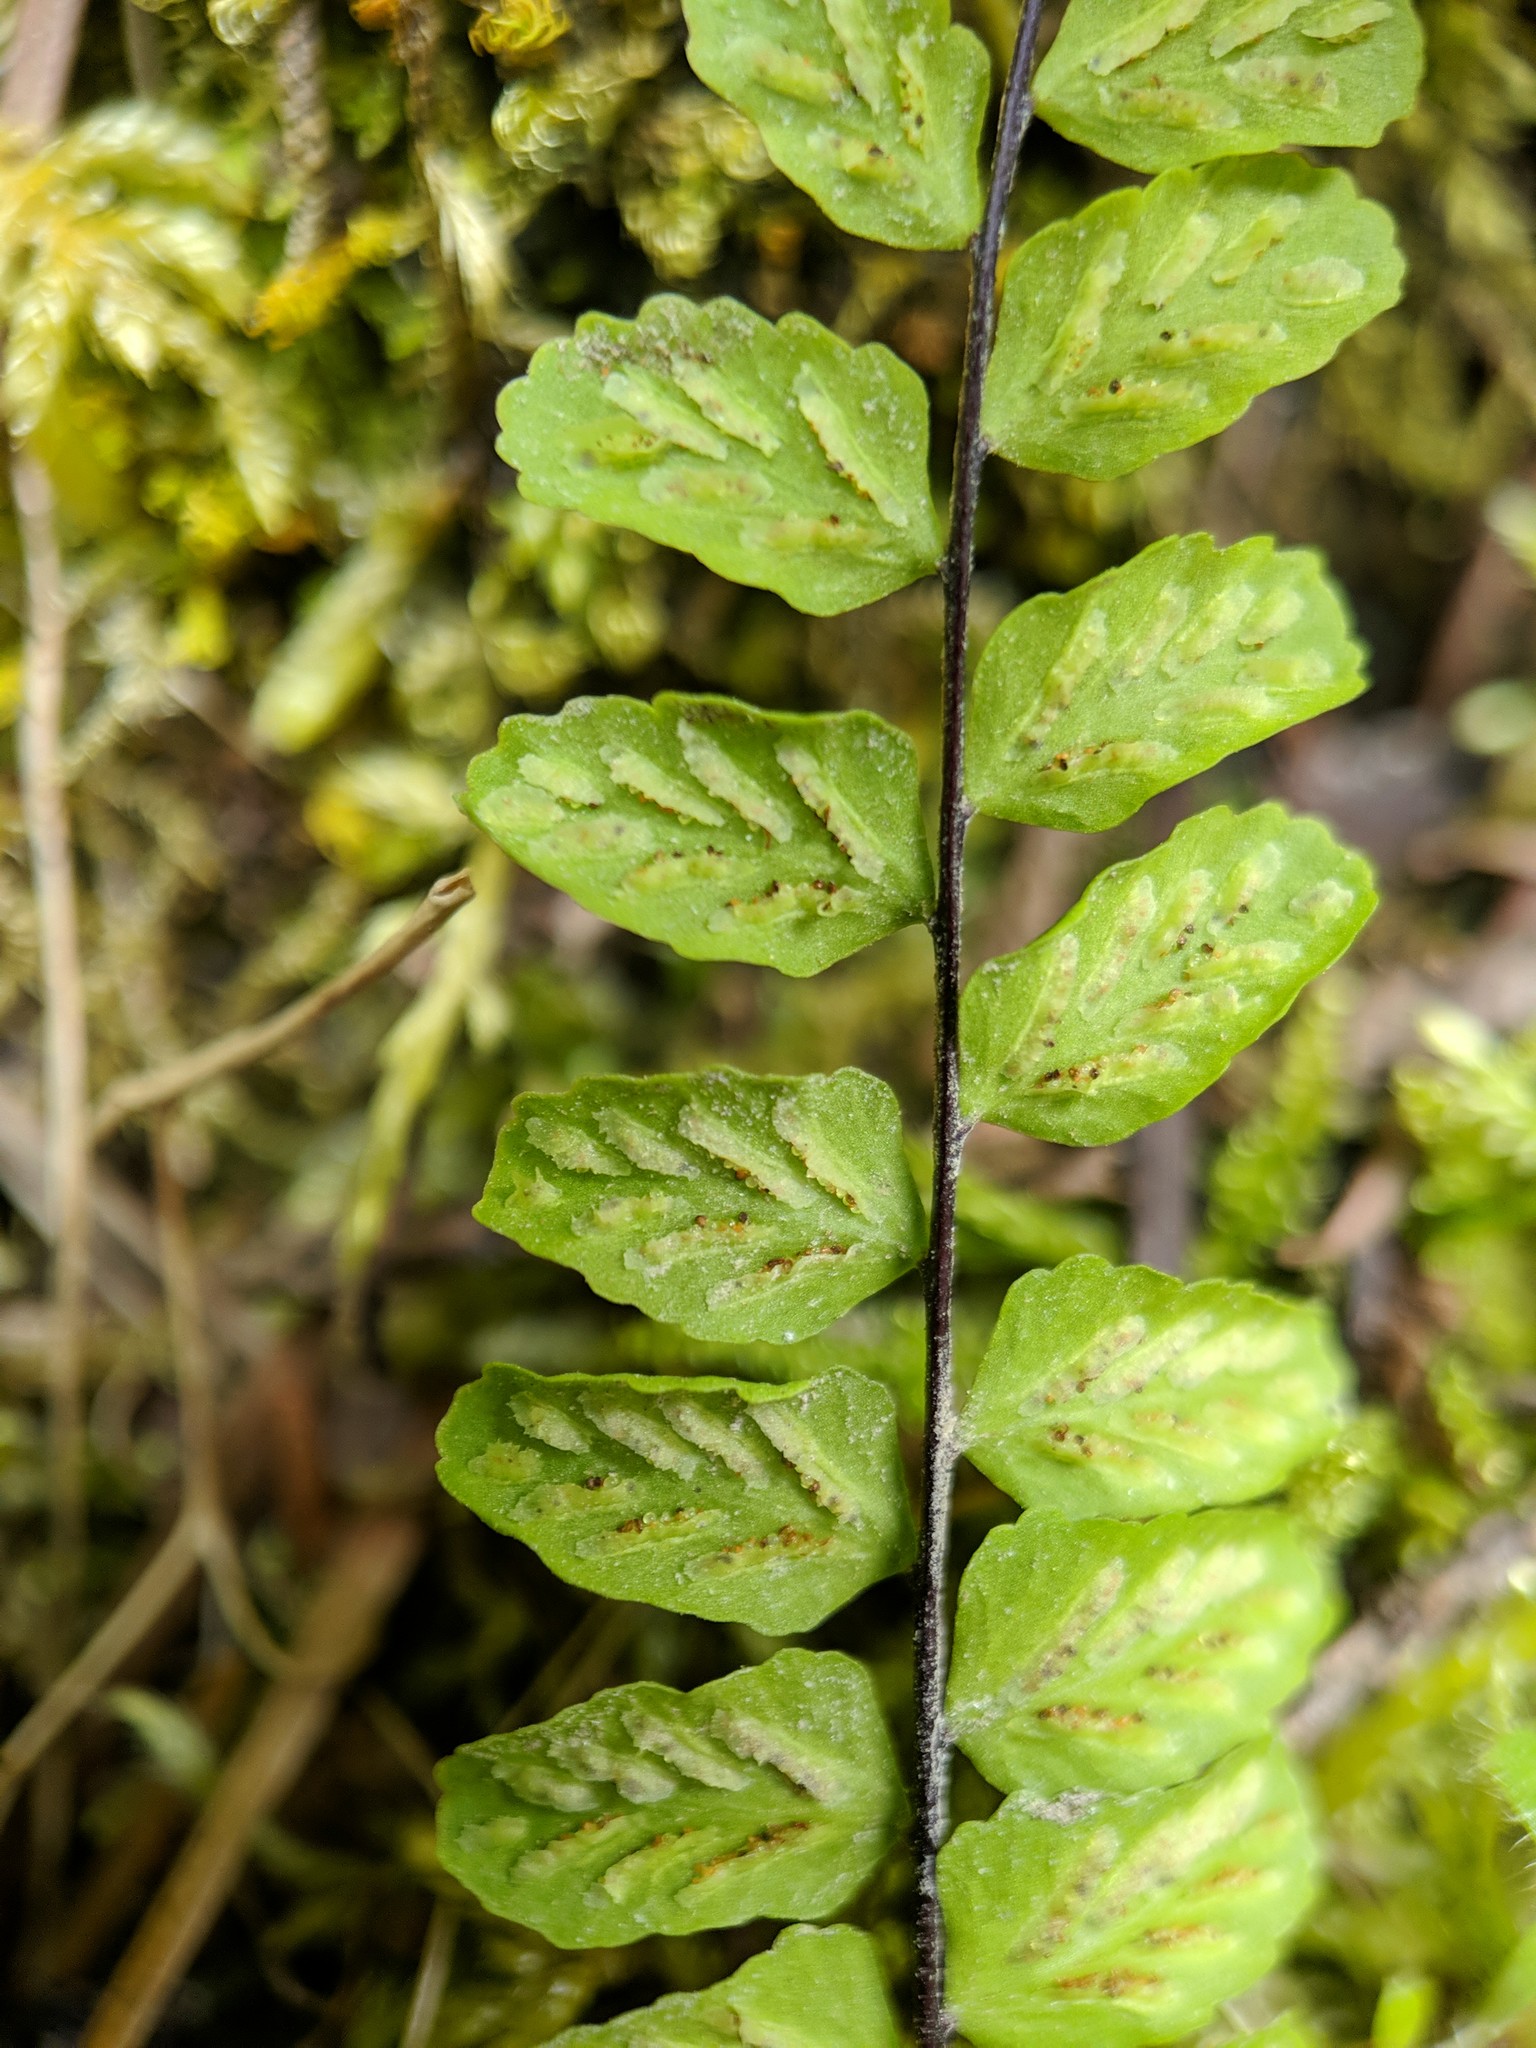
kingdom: Plantae
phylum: Tracheophyta
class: Polypodiopsida
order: Polypodiales
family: Aspleniaceae
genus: Asplenium
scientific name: Asplenium trichomanes
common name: Maidenhair spleenwort
